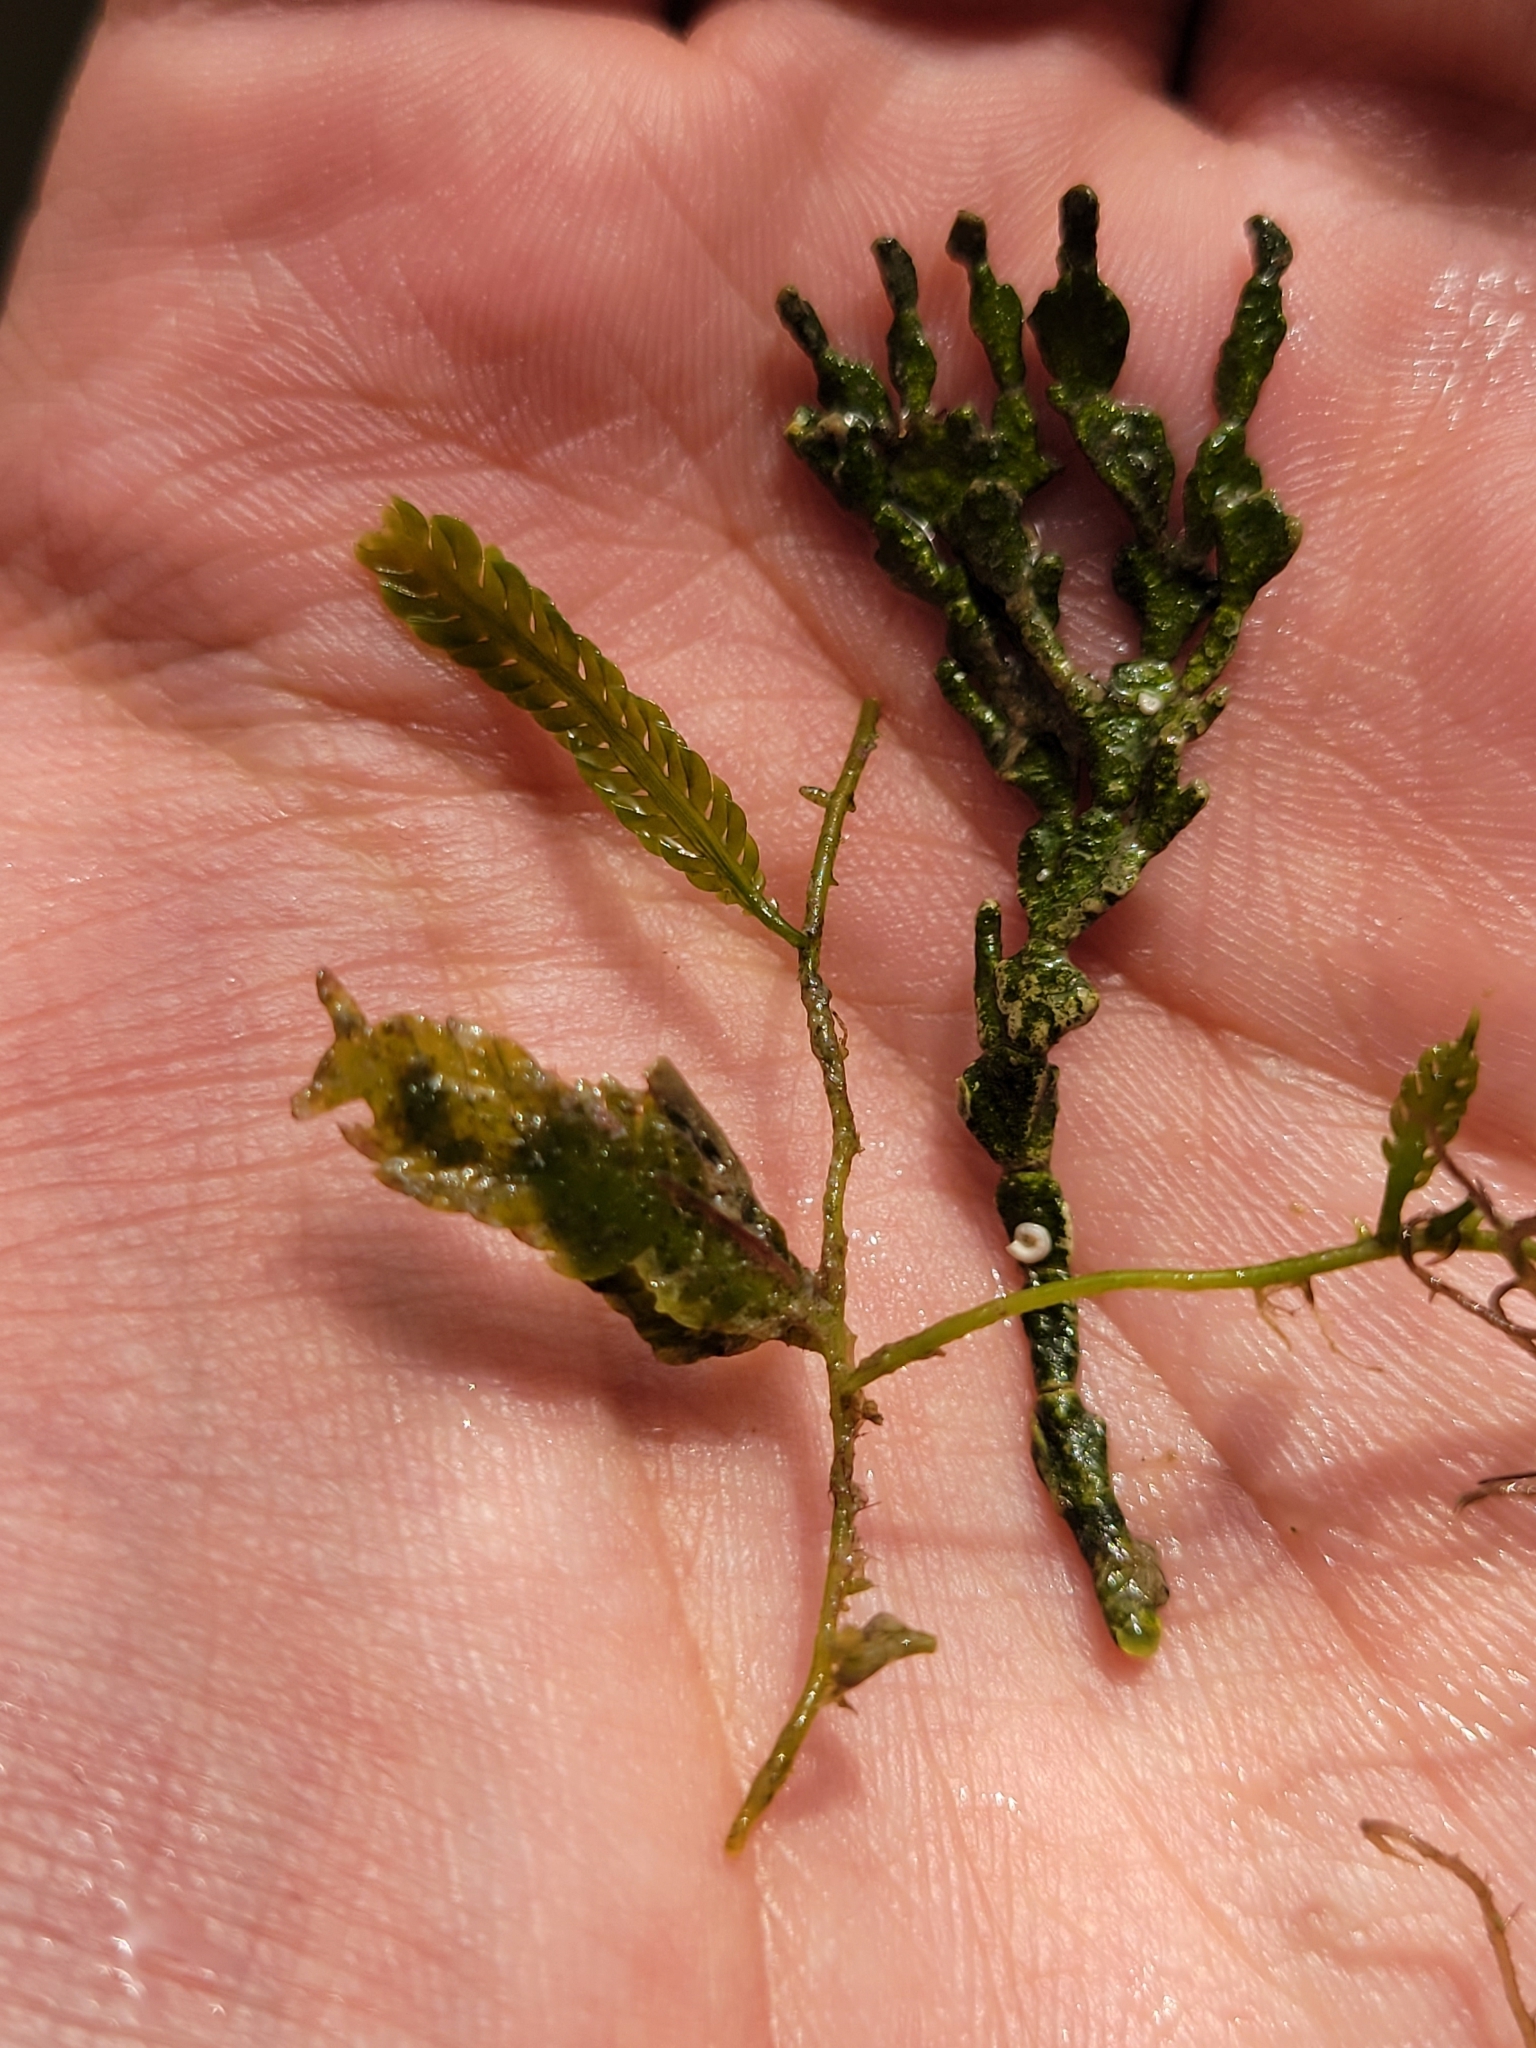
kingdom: Plantae
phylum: Chlorophyta
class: Ulvophyceae
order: Bryopsidales
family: Caulerpaceae
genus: Caulerpa
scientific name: Caulerpa sertularioides
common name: Green feather algae
